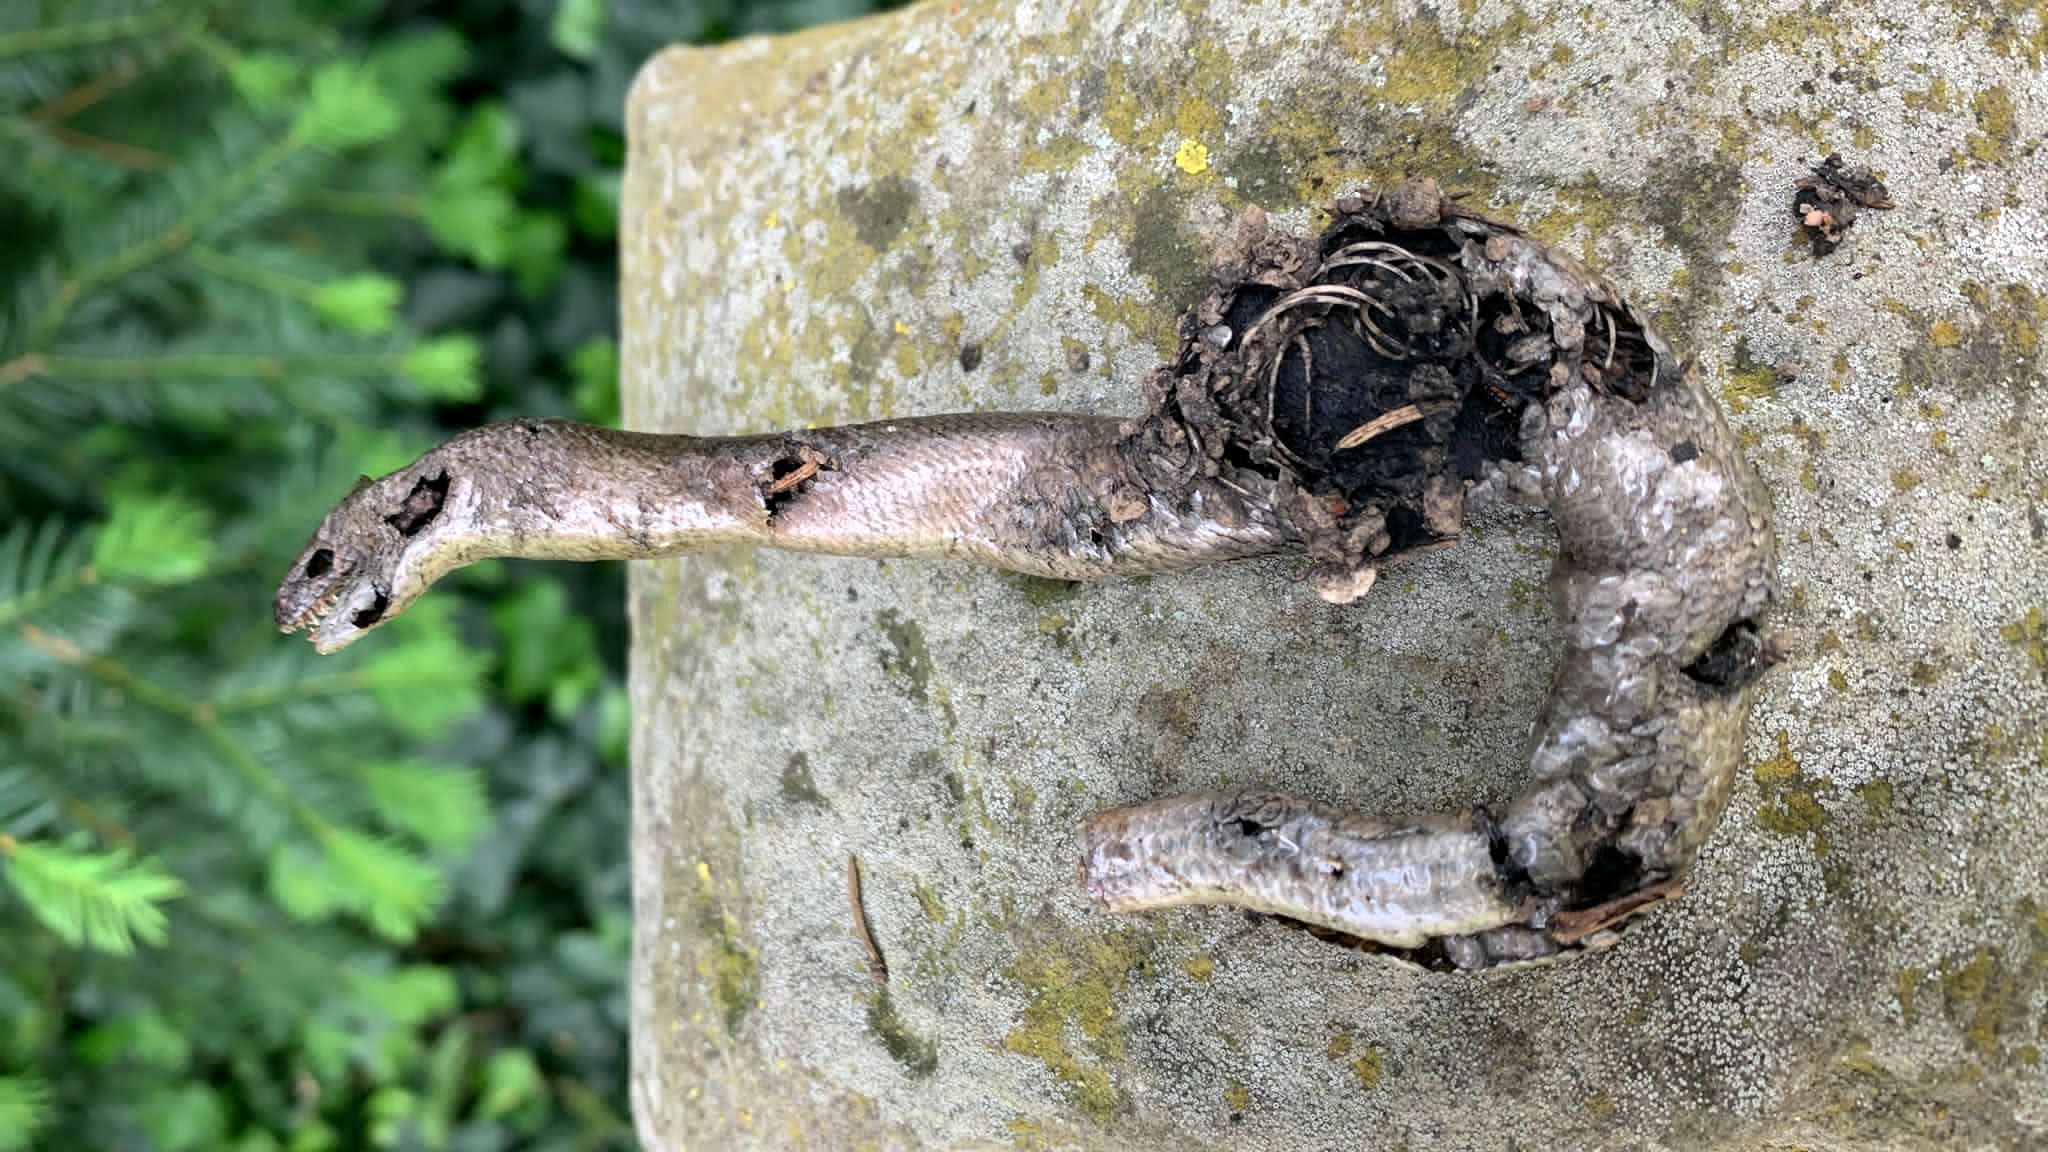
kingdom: Animalia
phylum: Chordata
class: Squamata
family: Anguidae
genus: Anguis
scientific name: Anguis fragilis
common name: Slow worm
